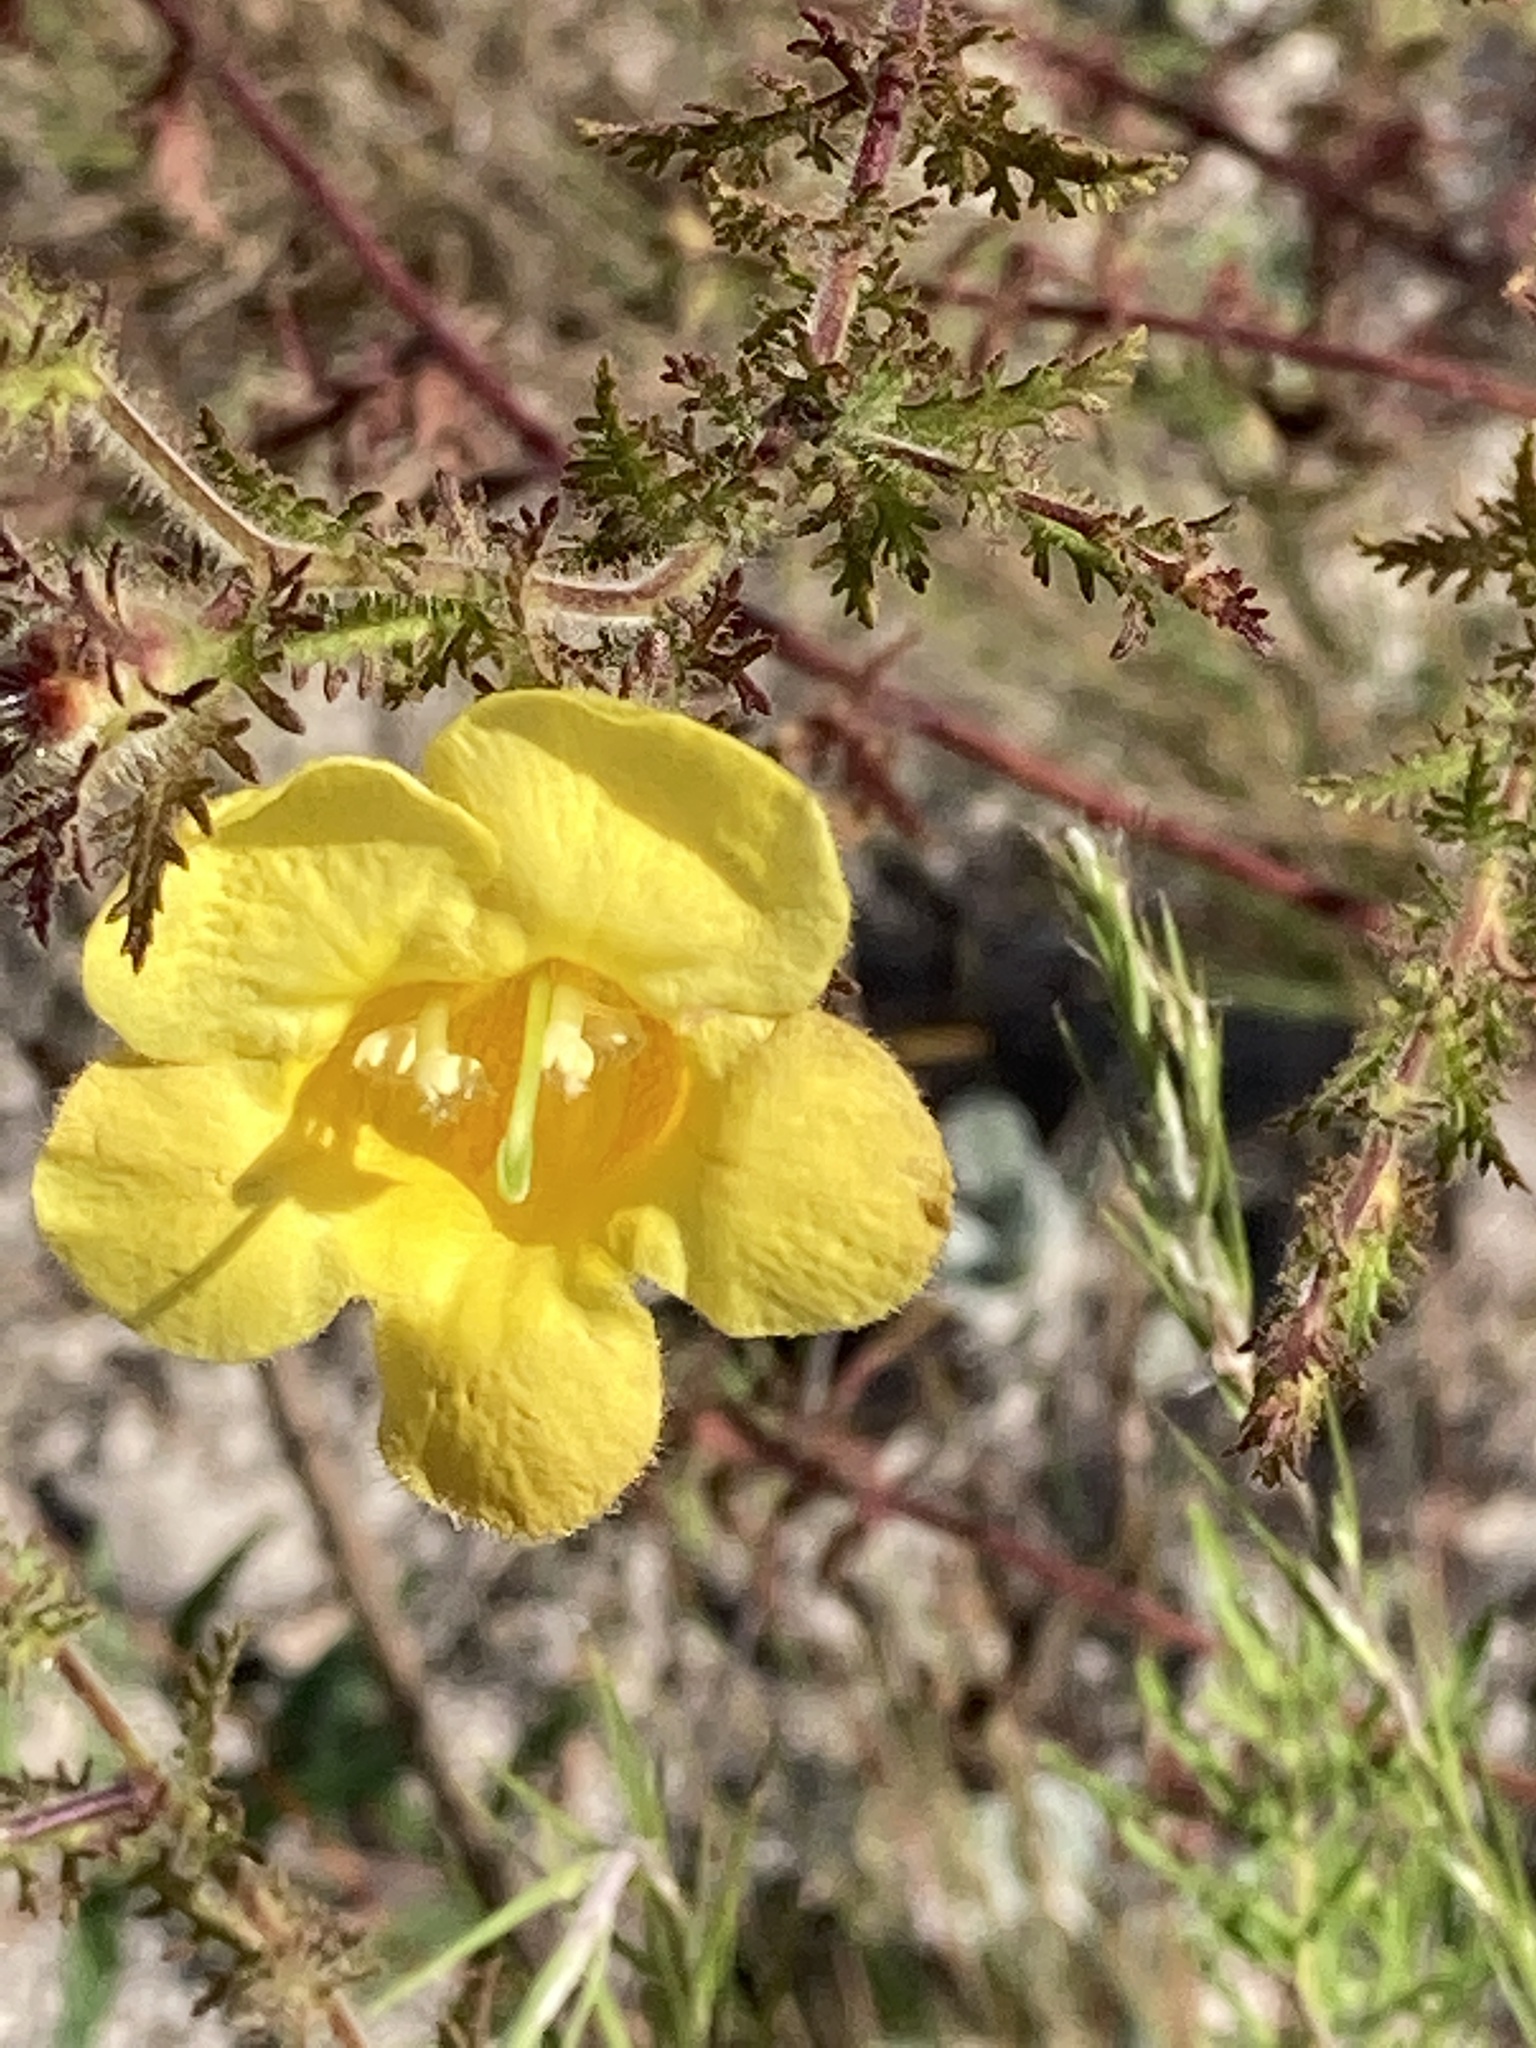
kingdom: Plantae
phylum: Tracheophyta
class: Magnoliopsida
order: Lamiales
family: Orobanchaceae
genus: Aureolaria
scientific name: Aureolaria pectinata
